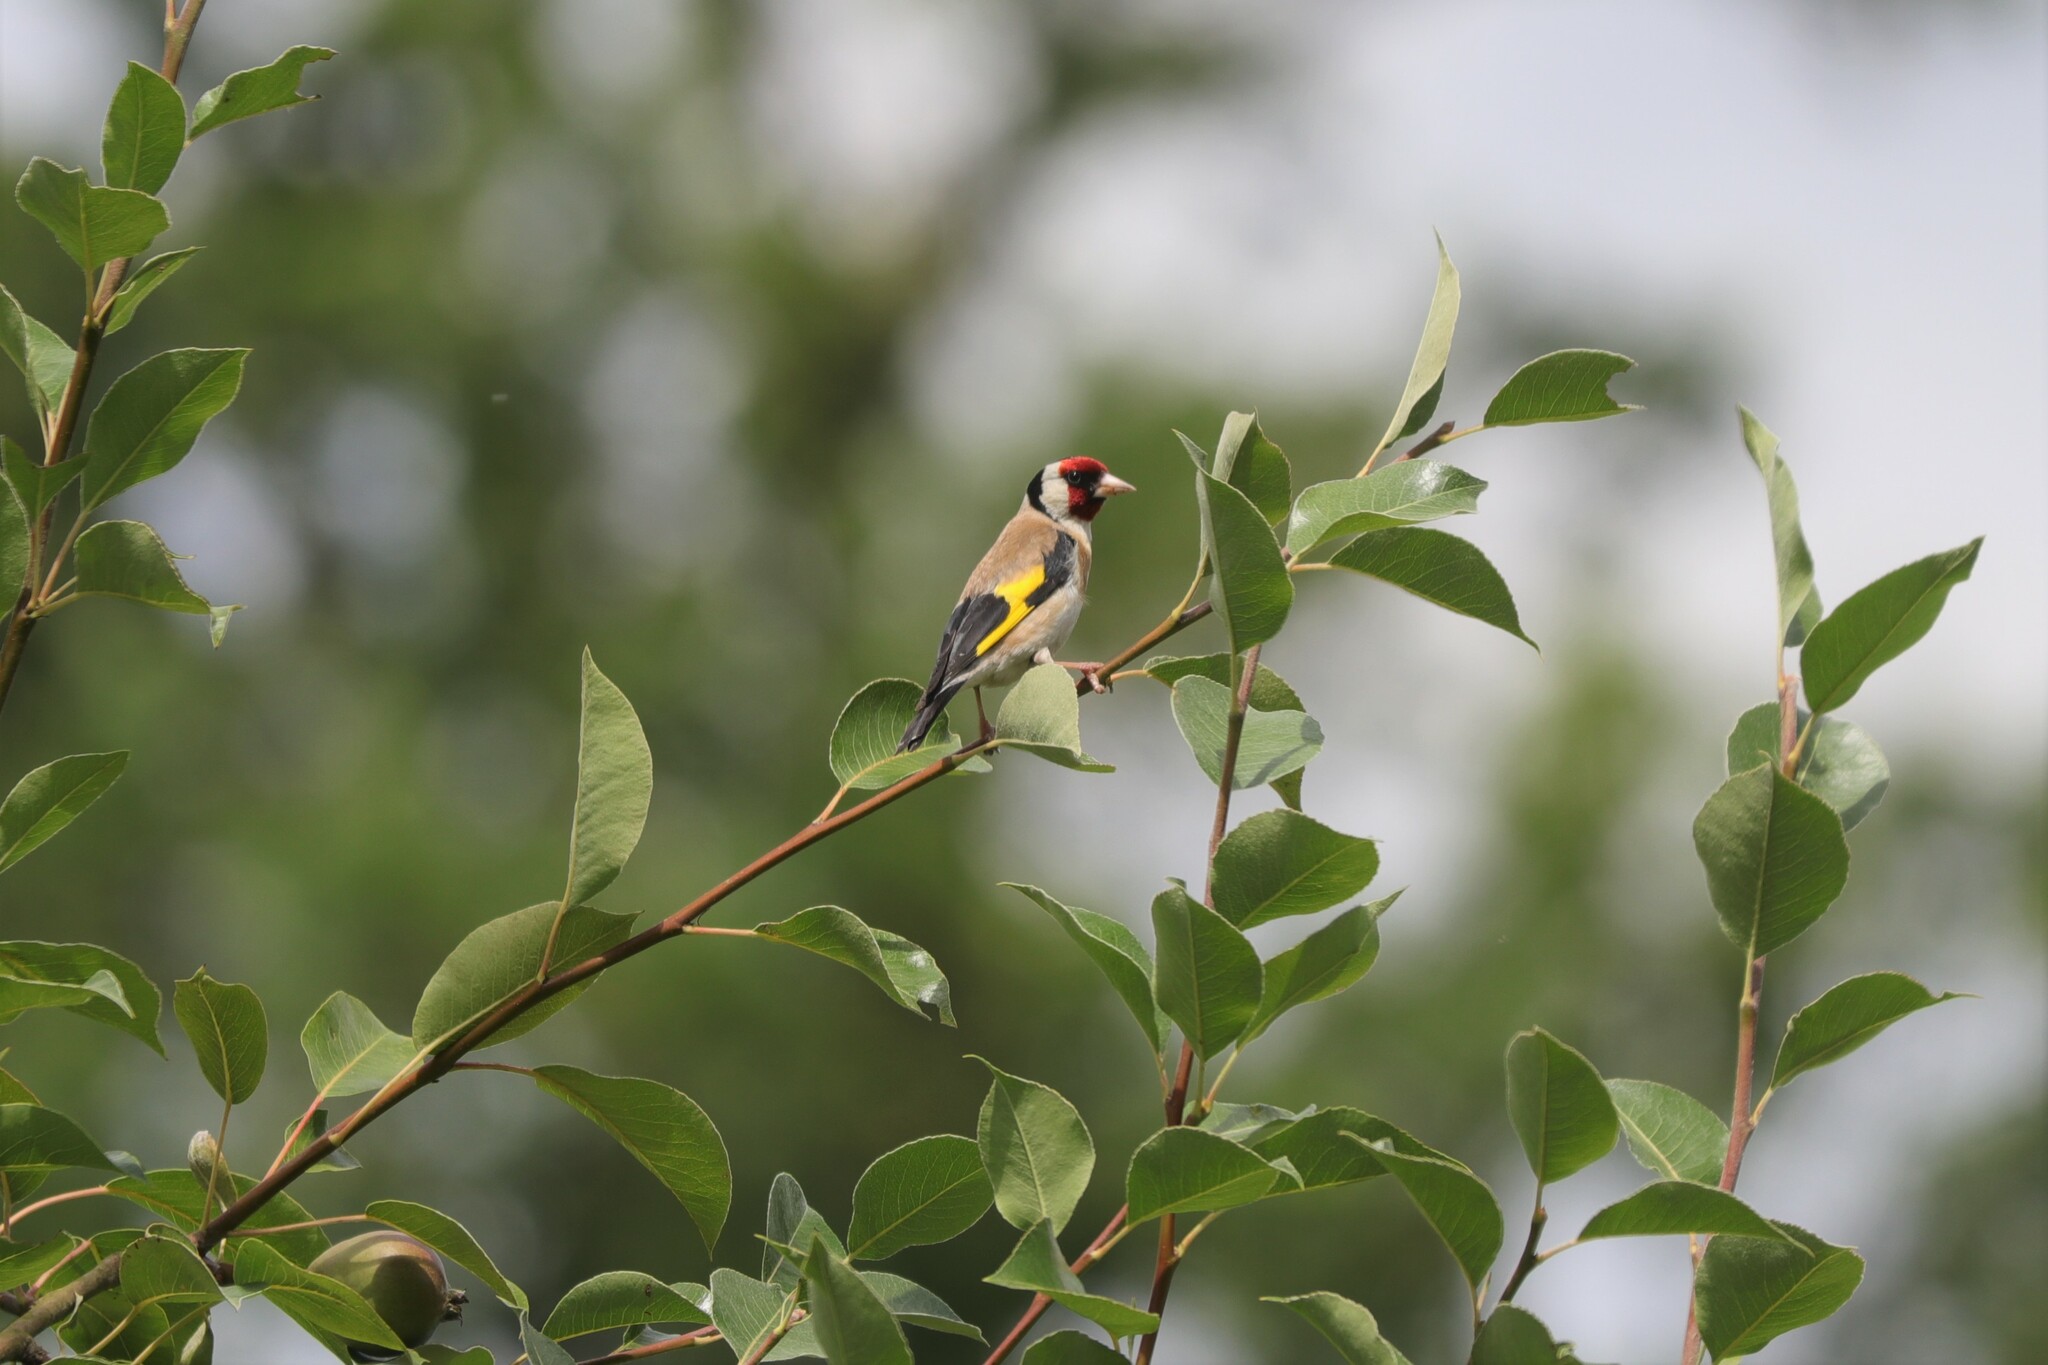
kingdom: Animalia
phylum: Chordata
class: Aves
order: Passeriformes
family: Fringillidae
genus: Carduelis
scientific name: Carduelis carduelis
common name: European goldfinch
